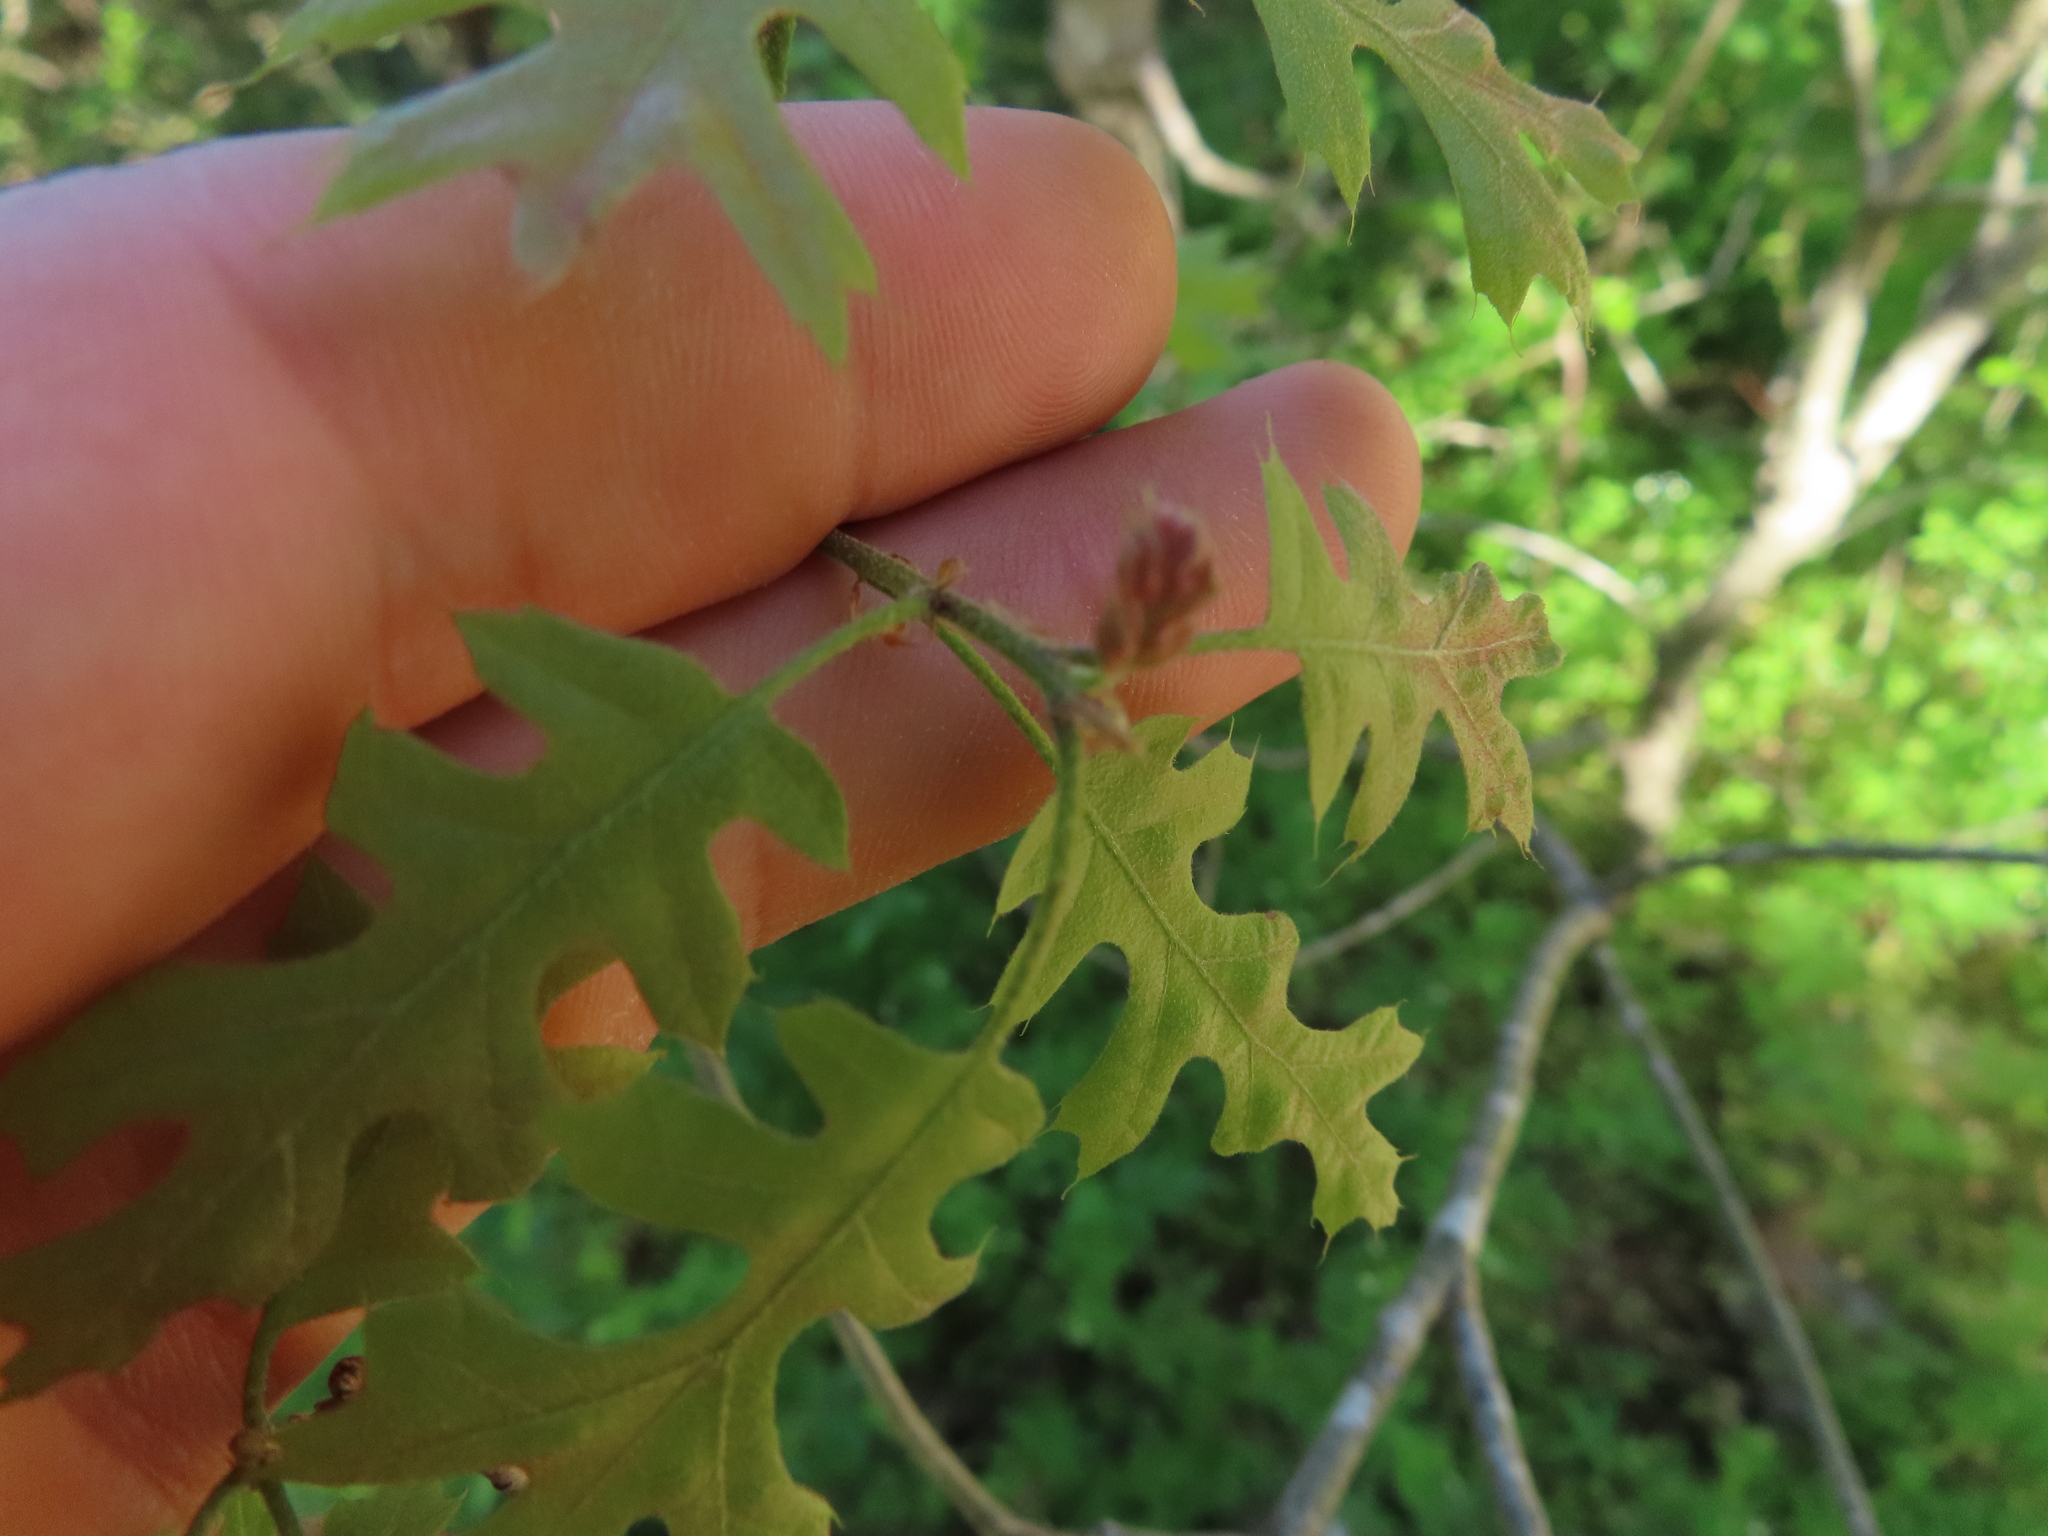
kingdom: Plantae
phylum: Tracheophyta
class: Magnoliopsida
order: Fagales
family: Fagaceae
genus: Quercus
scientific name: Quercus buckleyi
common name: Buckley oak
